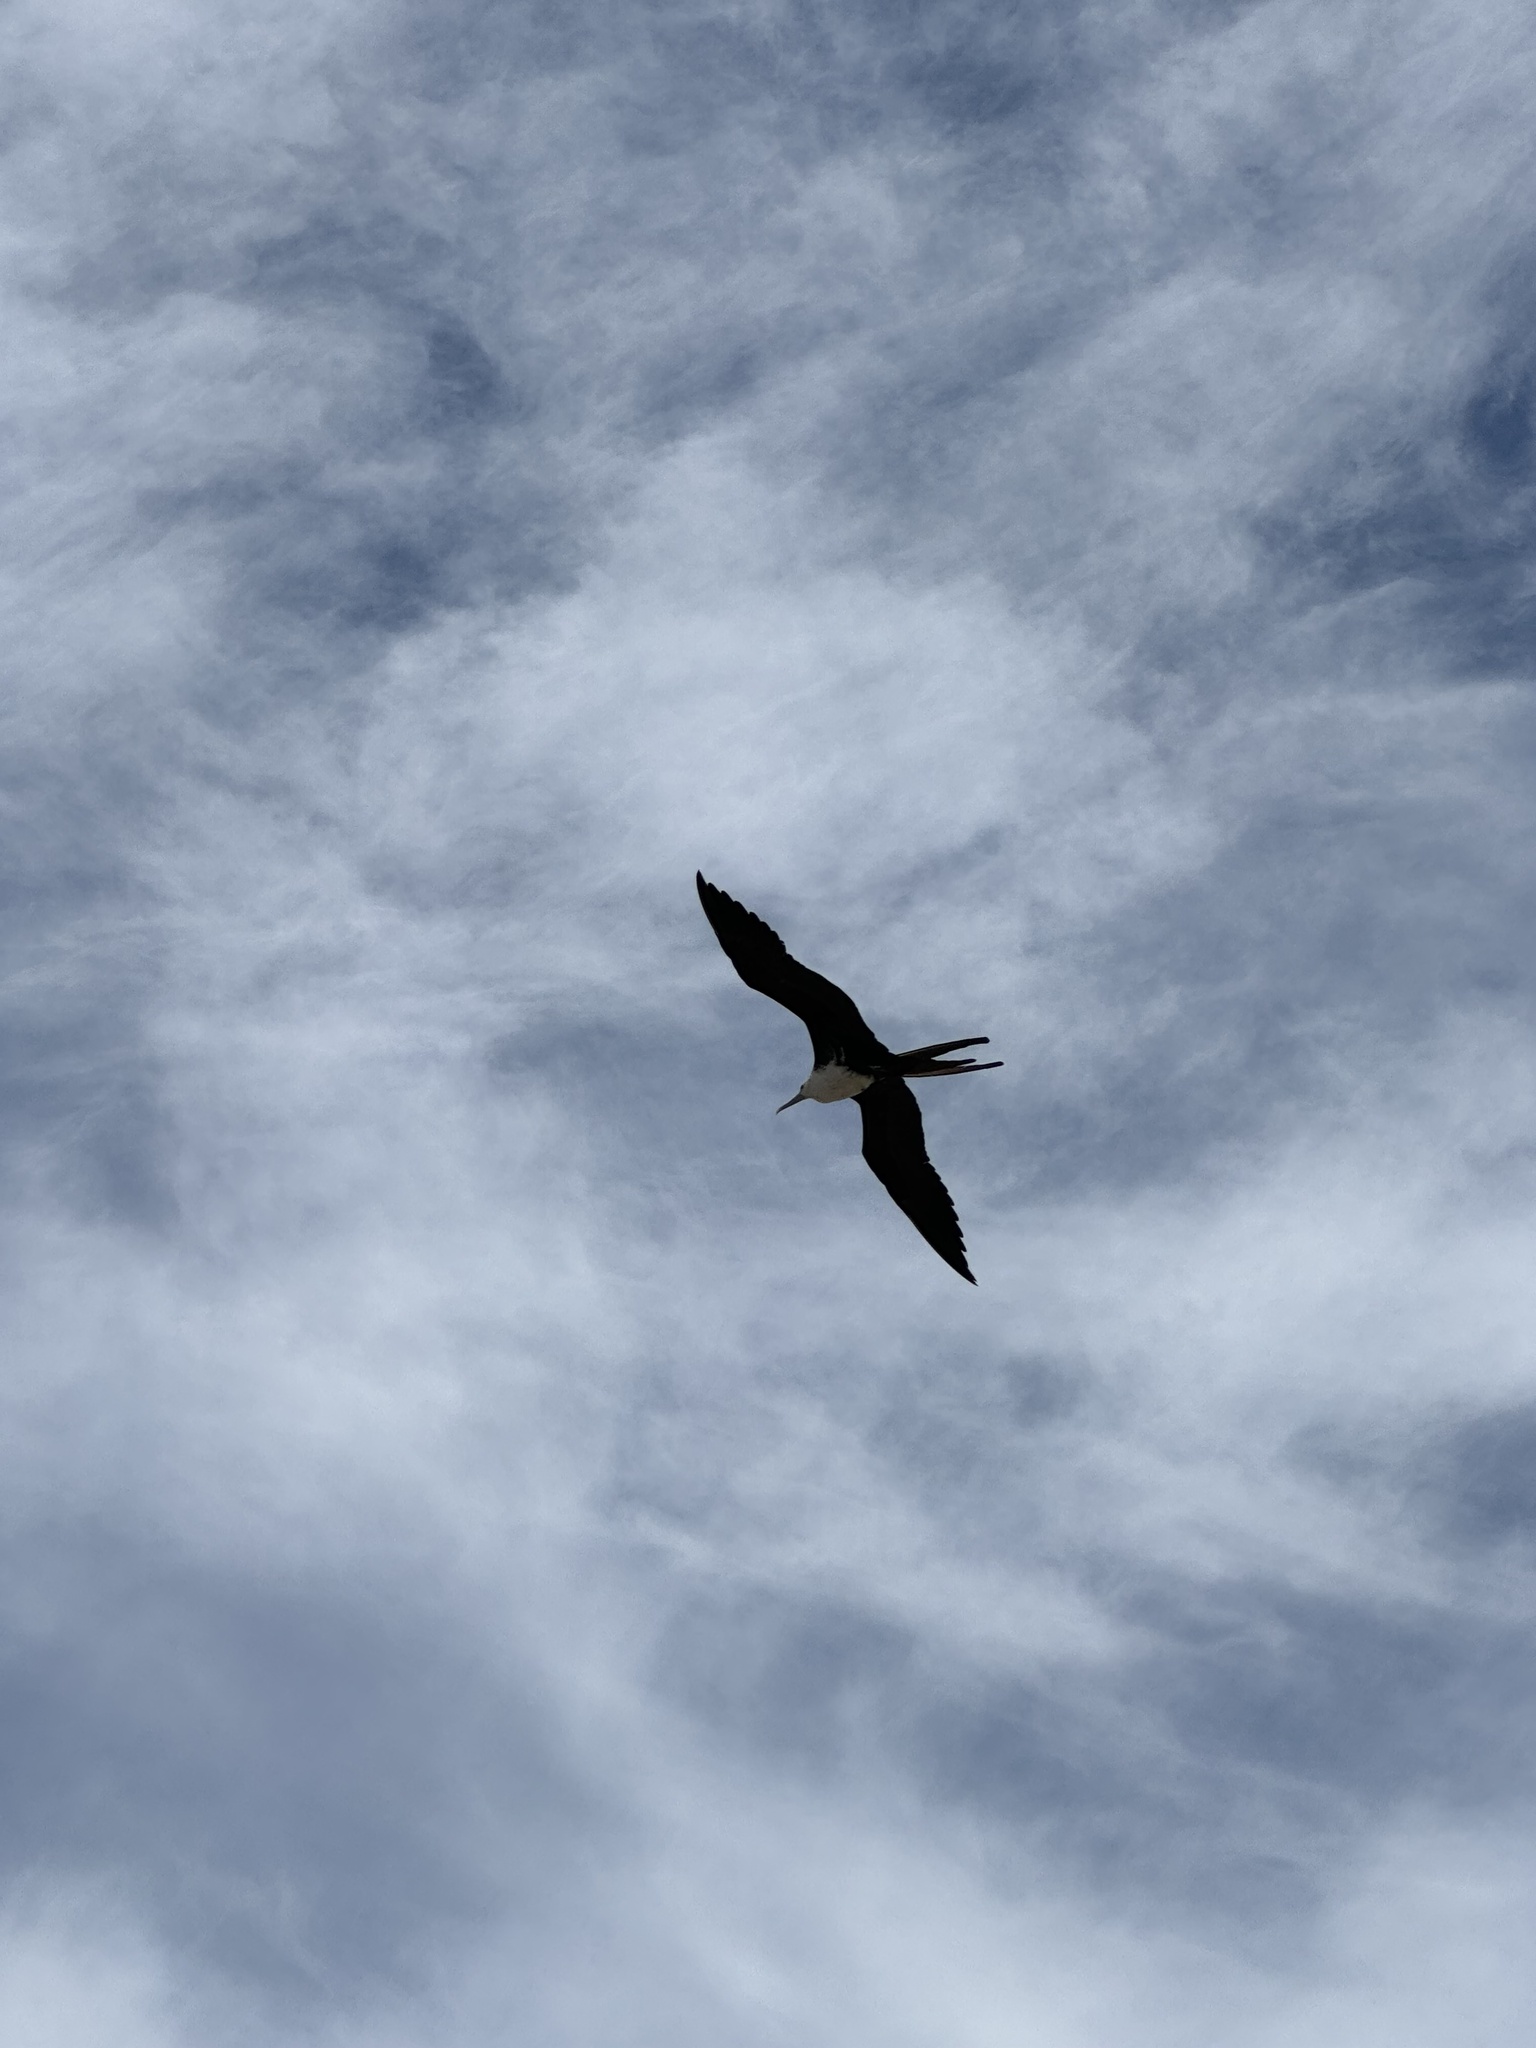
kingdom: Animalia
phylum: Chordata
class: Aves
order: Suliformes
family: Fregatidae
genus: Fregata
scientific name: Fregata magnificens
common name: Magnificent frigatebird
